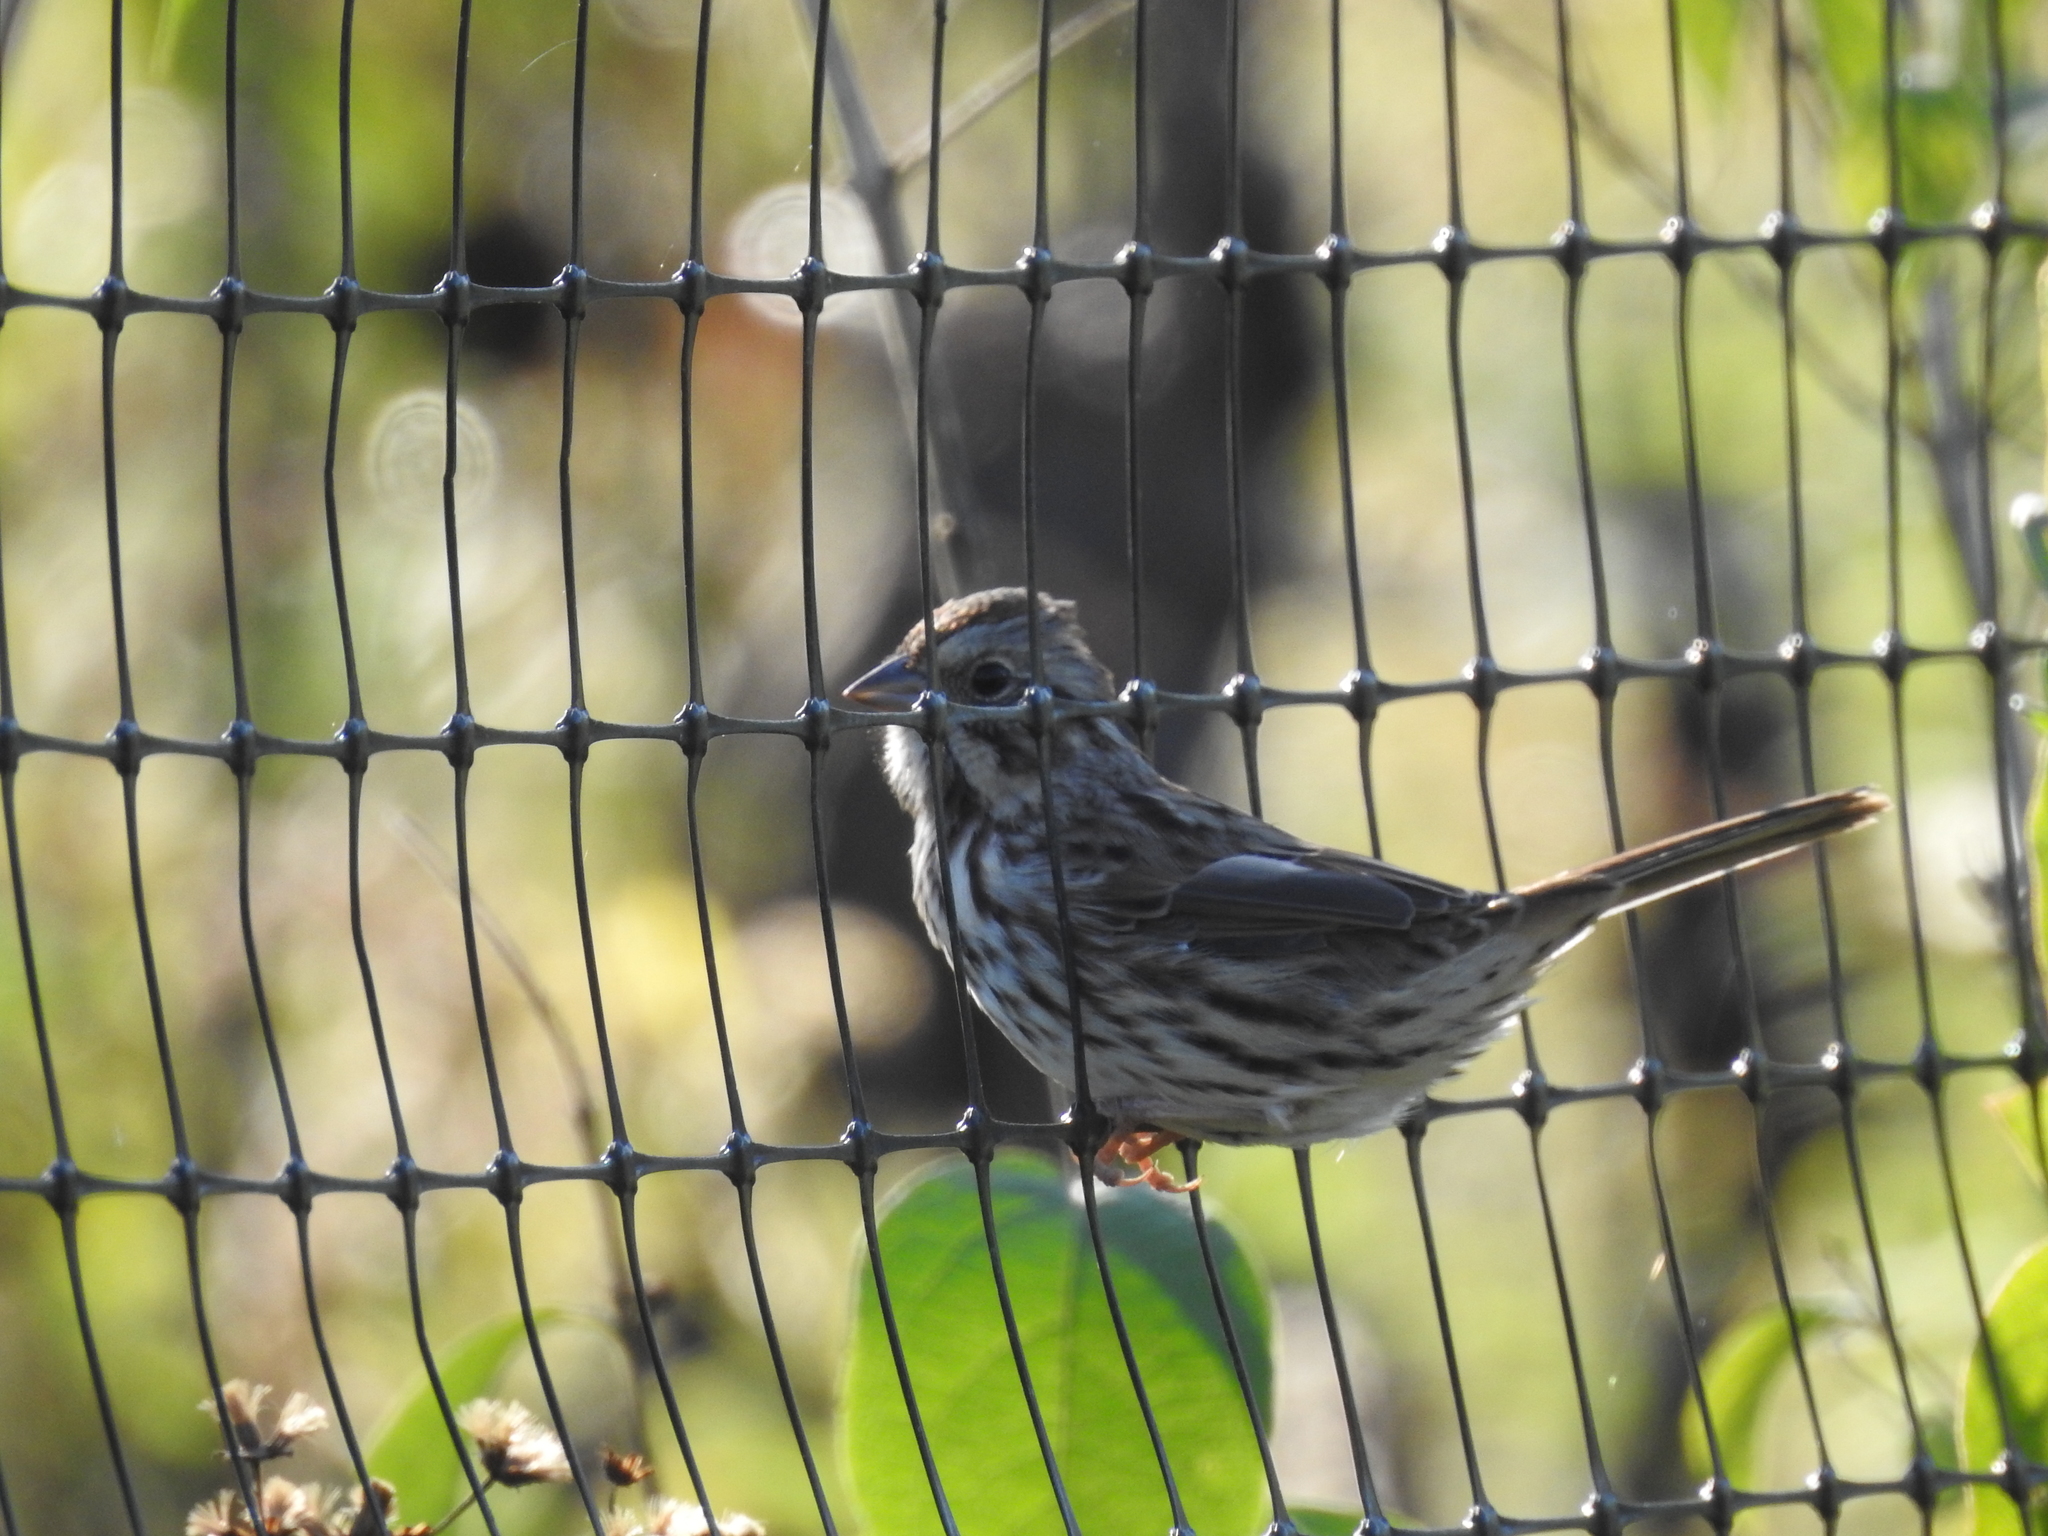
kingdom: Animalia
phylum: Chordata
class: Aves
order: Passeriformes
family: Passerellidae
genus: Melospiza
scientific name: Melospiza melodia
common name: Song sparrow
